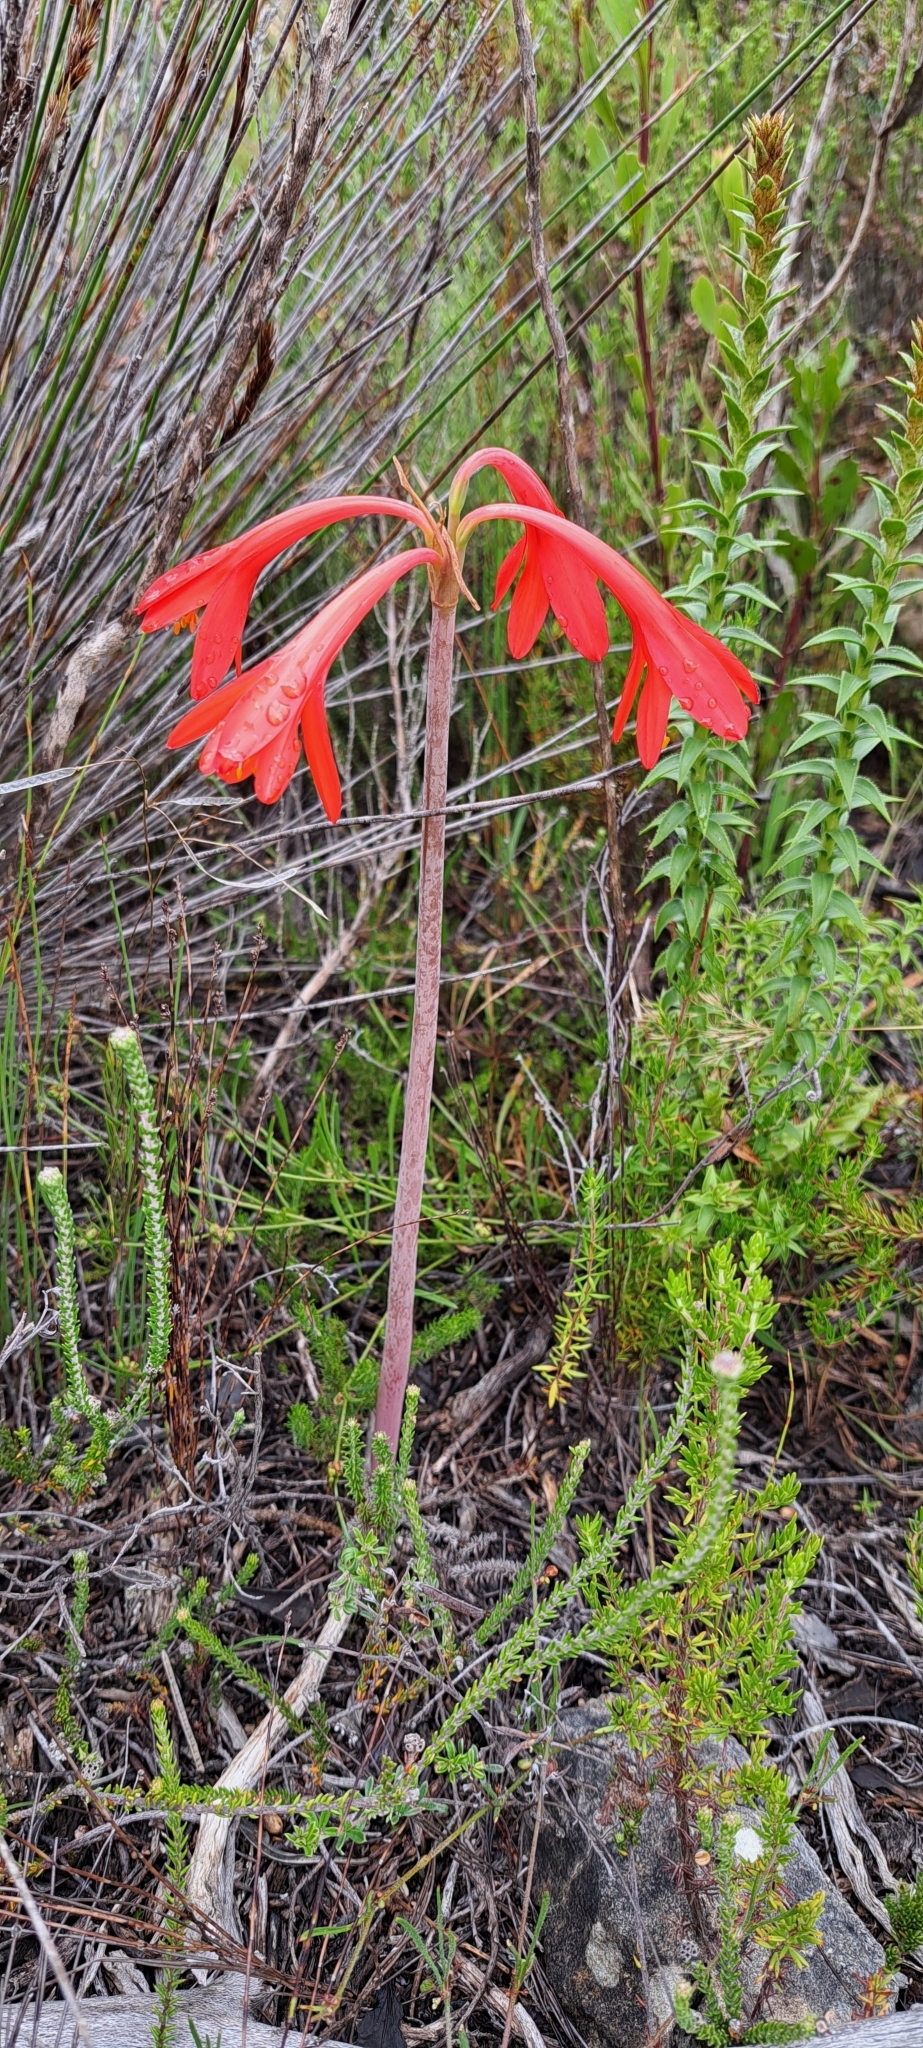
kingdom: Plantae
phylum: Tracheophyta
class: Liliopsida
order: Asparagales
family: Amaryllidaceae
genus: Cyrtanthus
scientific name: Cyrtanthus fergusoniae
